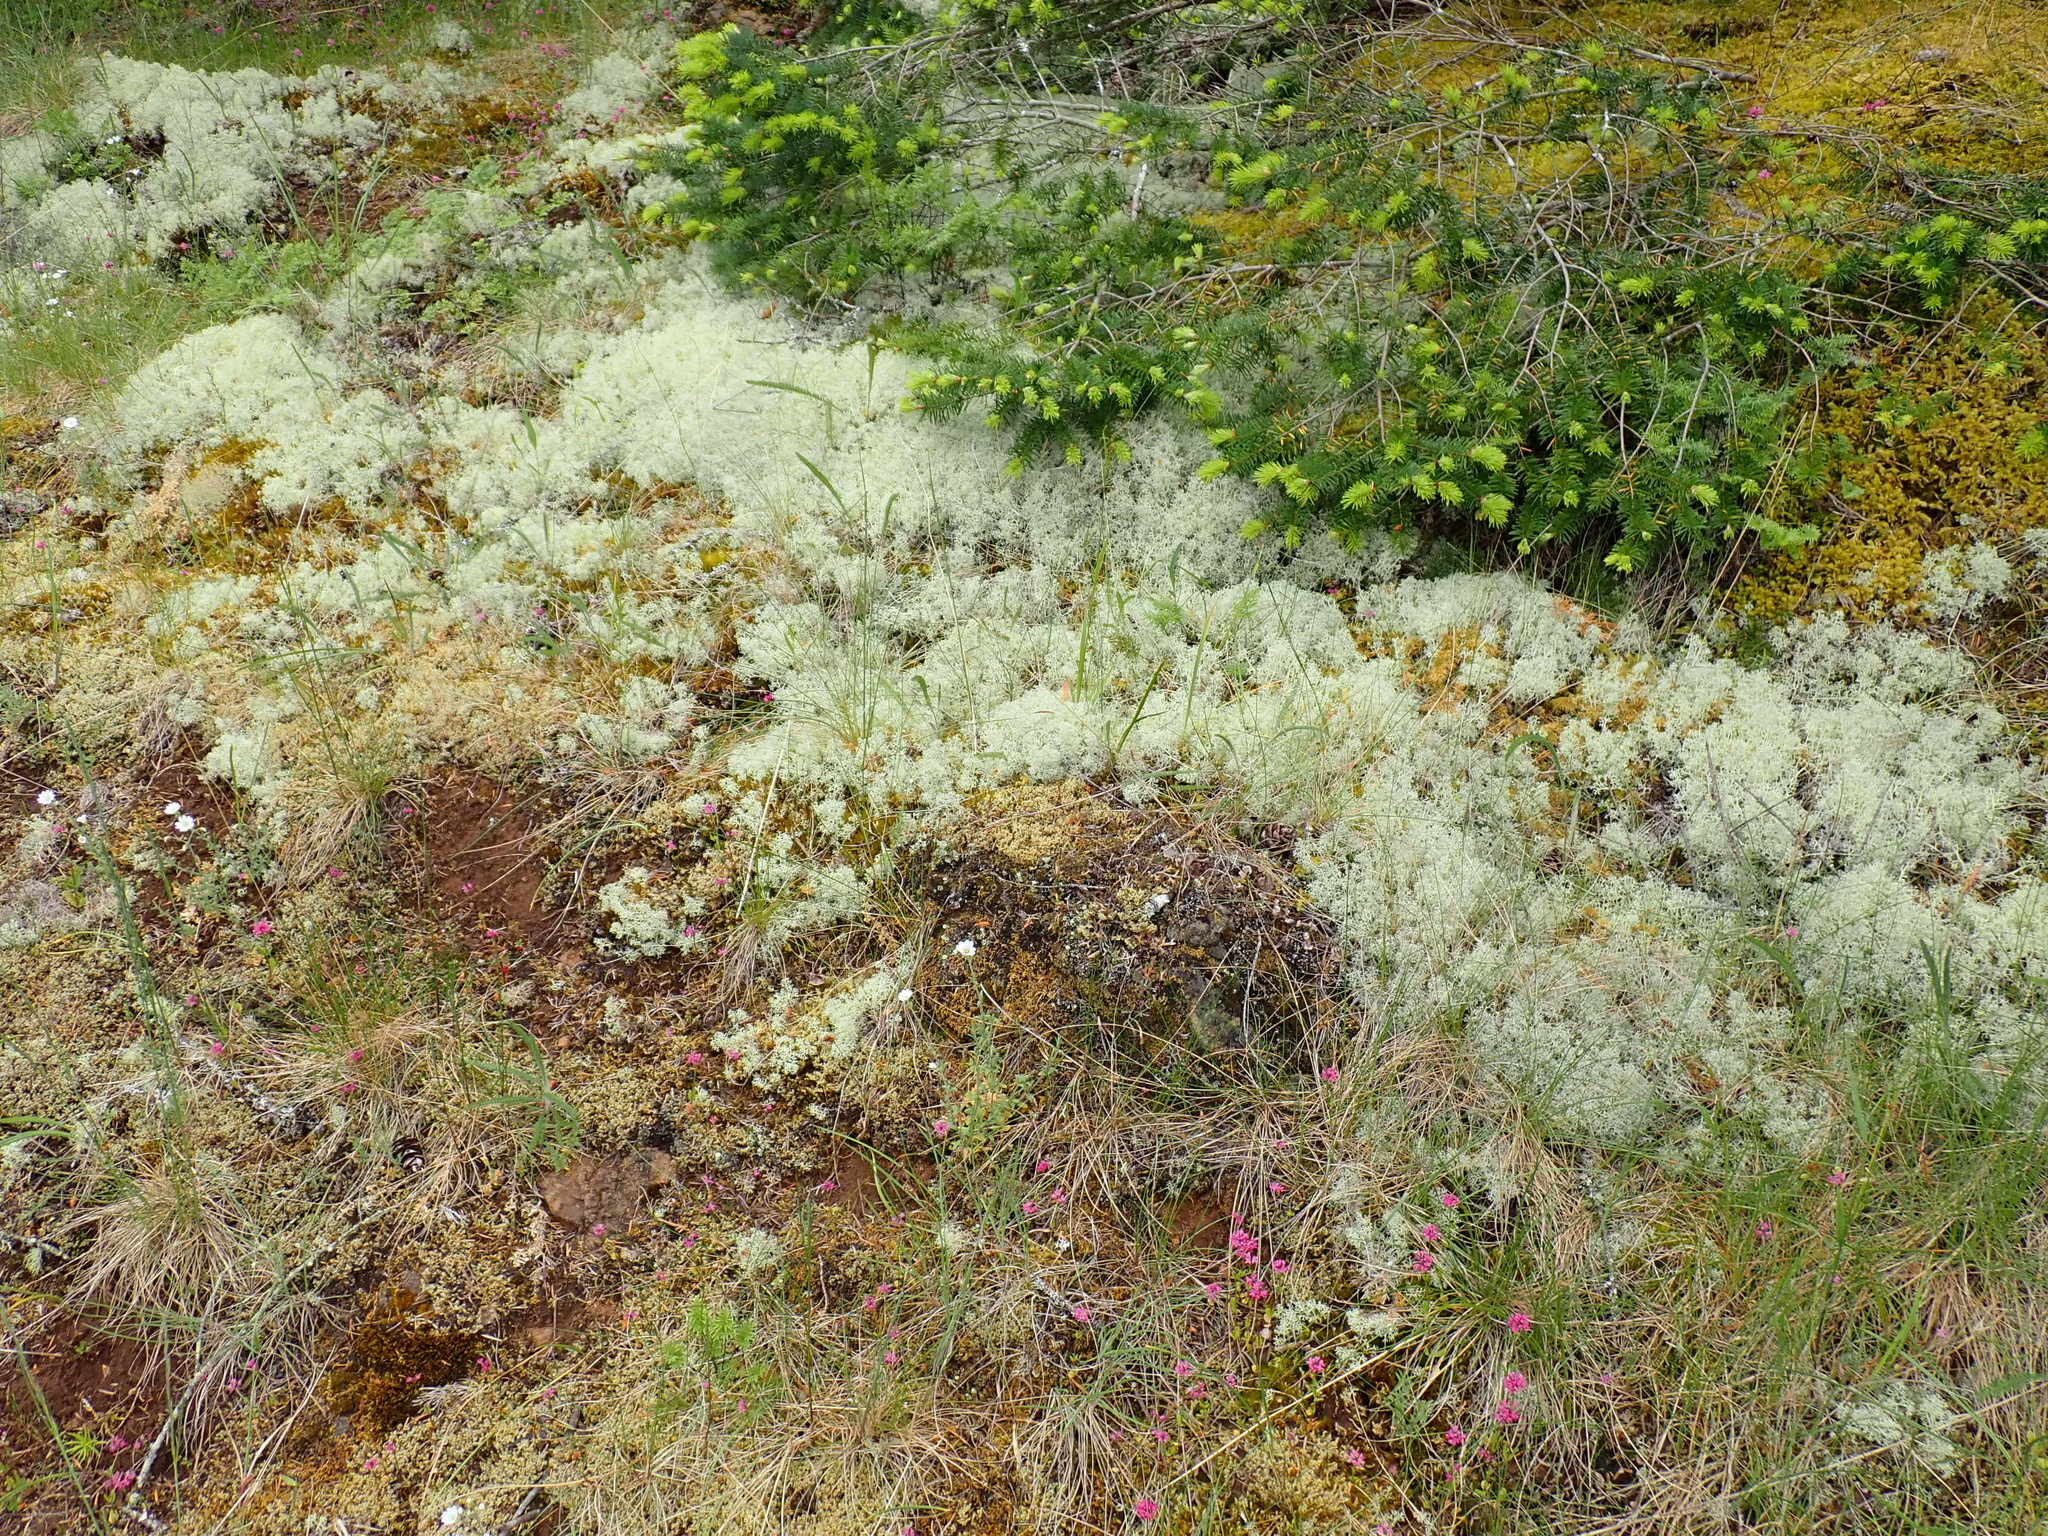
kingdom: Fungi
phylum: Ascomycota
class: Lecanoromycetes
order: Lecanorales
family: Cladoniaceae
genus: Cladonia
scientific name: Cladonia portentosa
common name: Reindeer lichen
